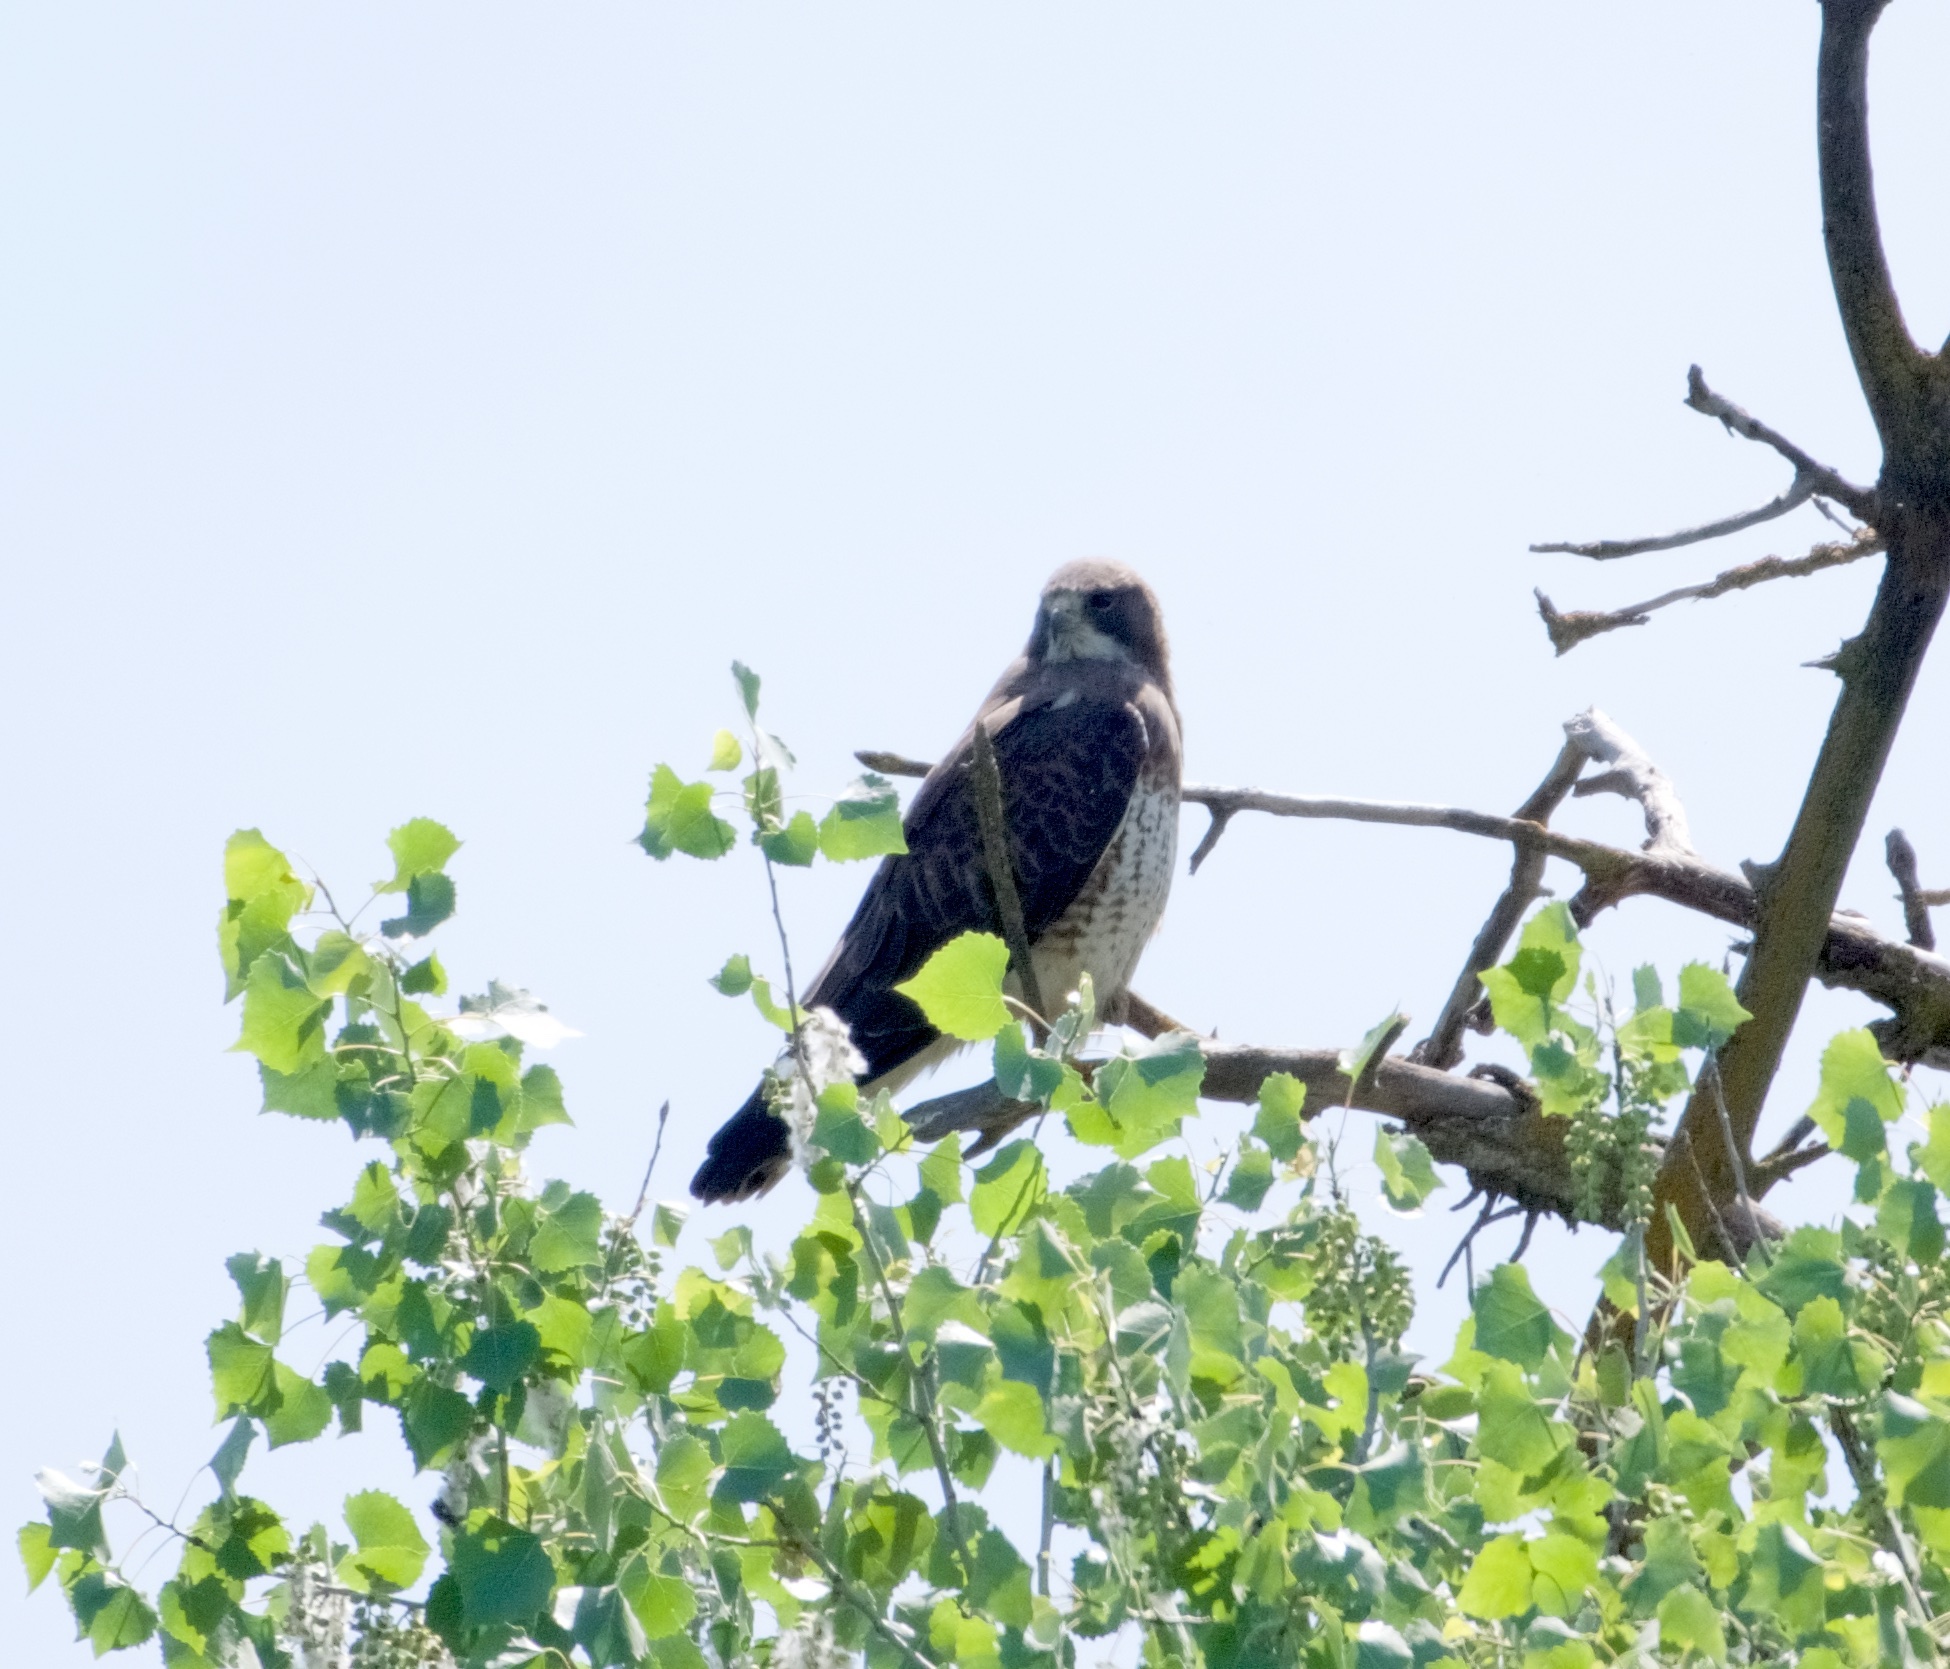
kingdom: Animalia
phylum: Chordata
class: Aves
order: Accipitriformes
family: Accipitridae
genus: Buteo
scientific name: Buteo swainsoni
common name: Swainson's hawk
